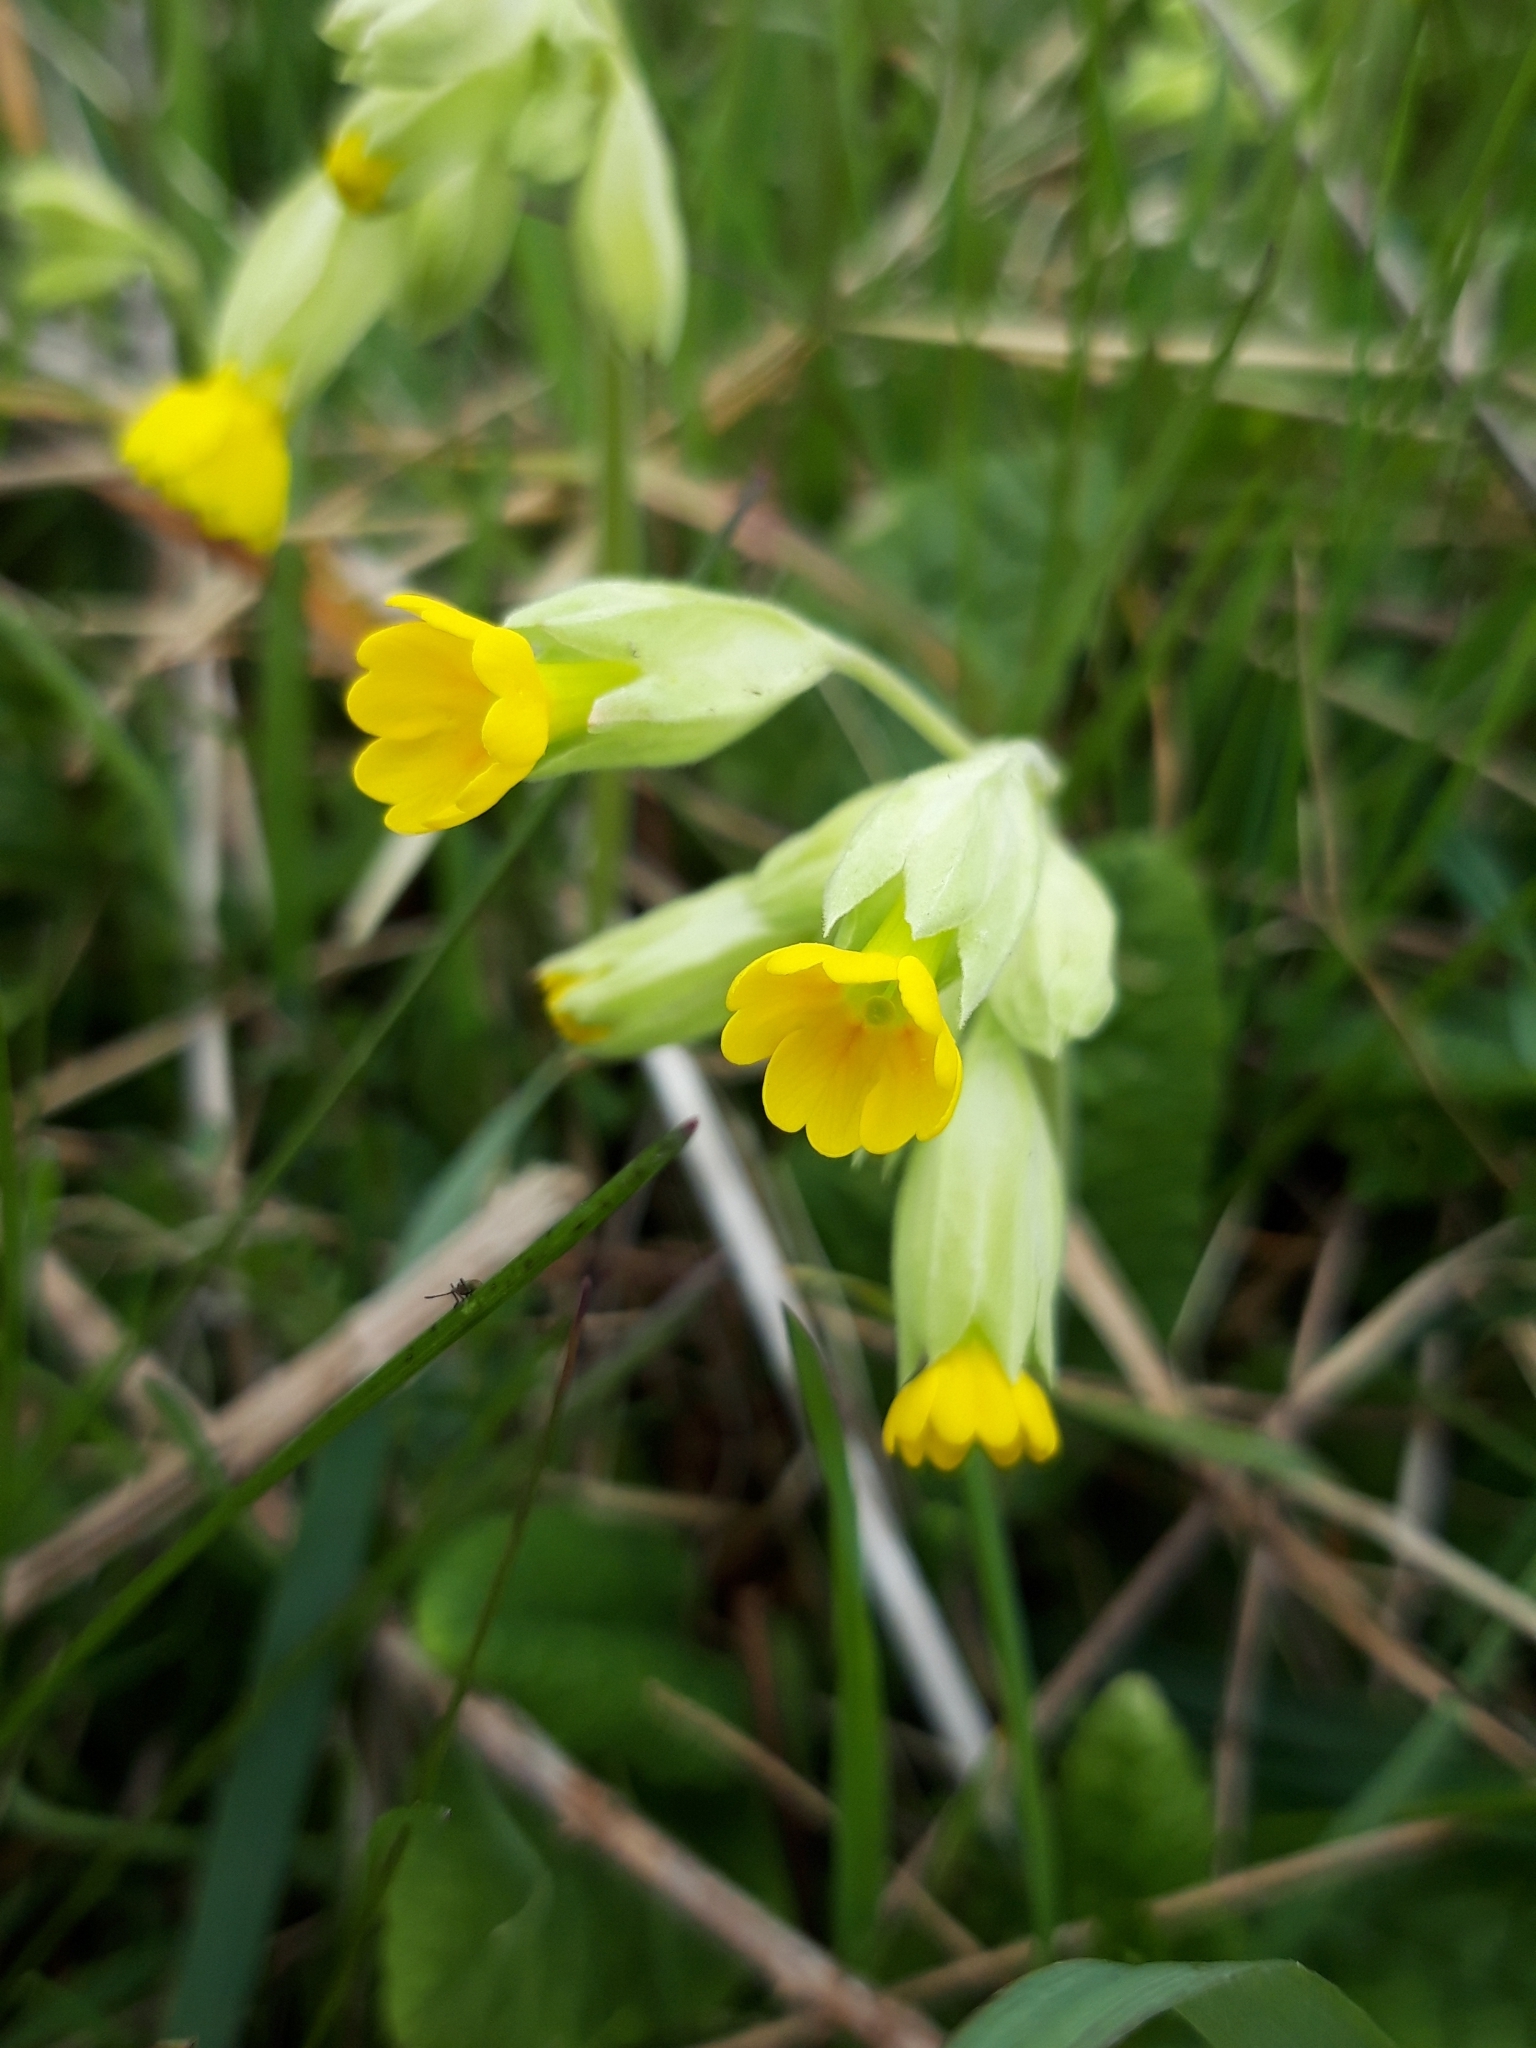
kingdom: Plantae
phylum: Tracheophyta
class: Magnoliopsida
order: Ericales
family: Primulaceae
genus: Primula
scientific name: Primula veris
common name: Cowslip
